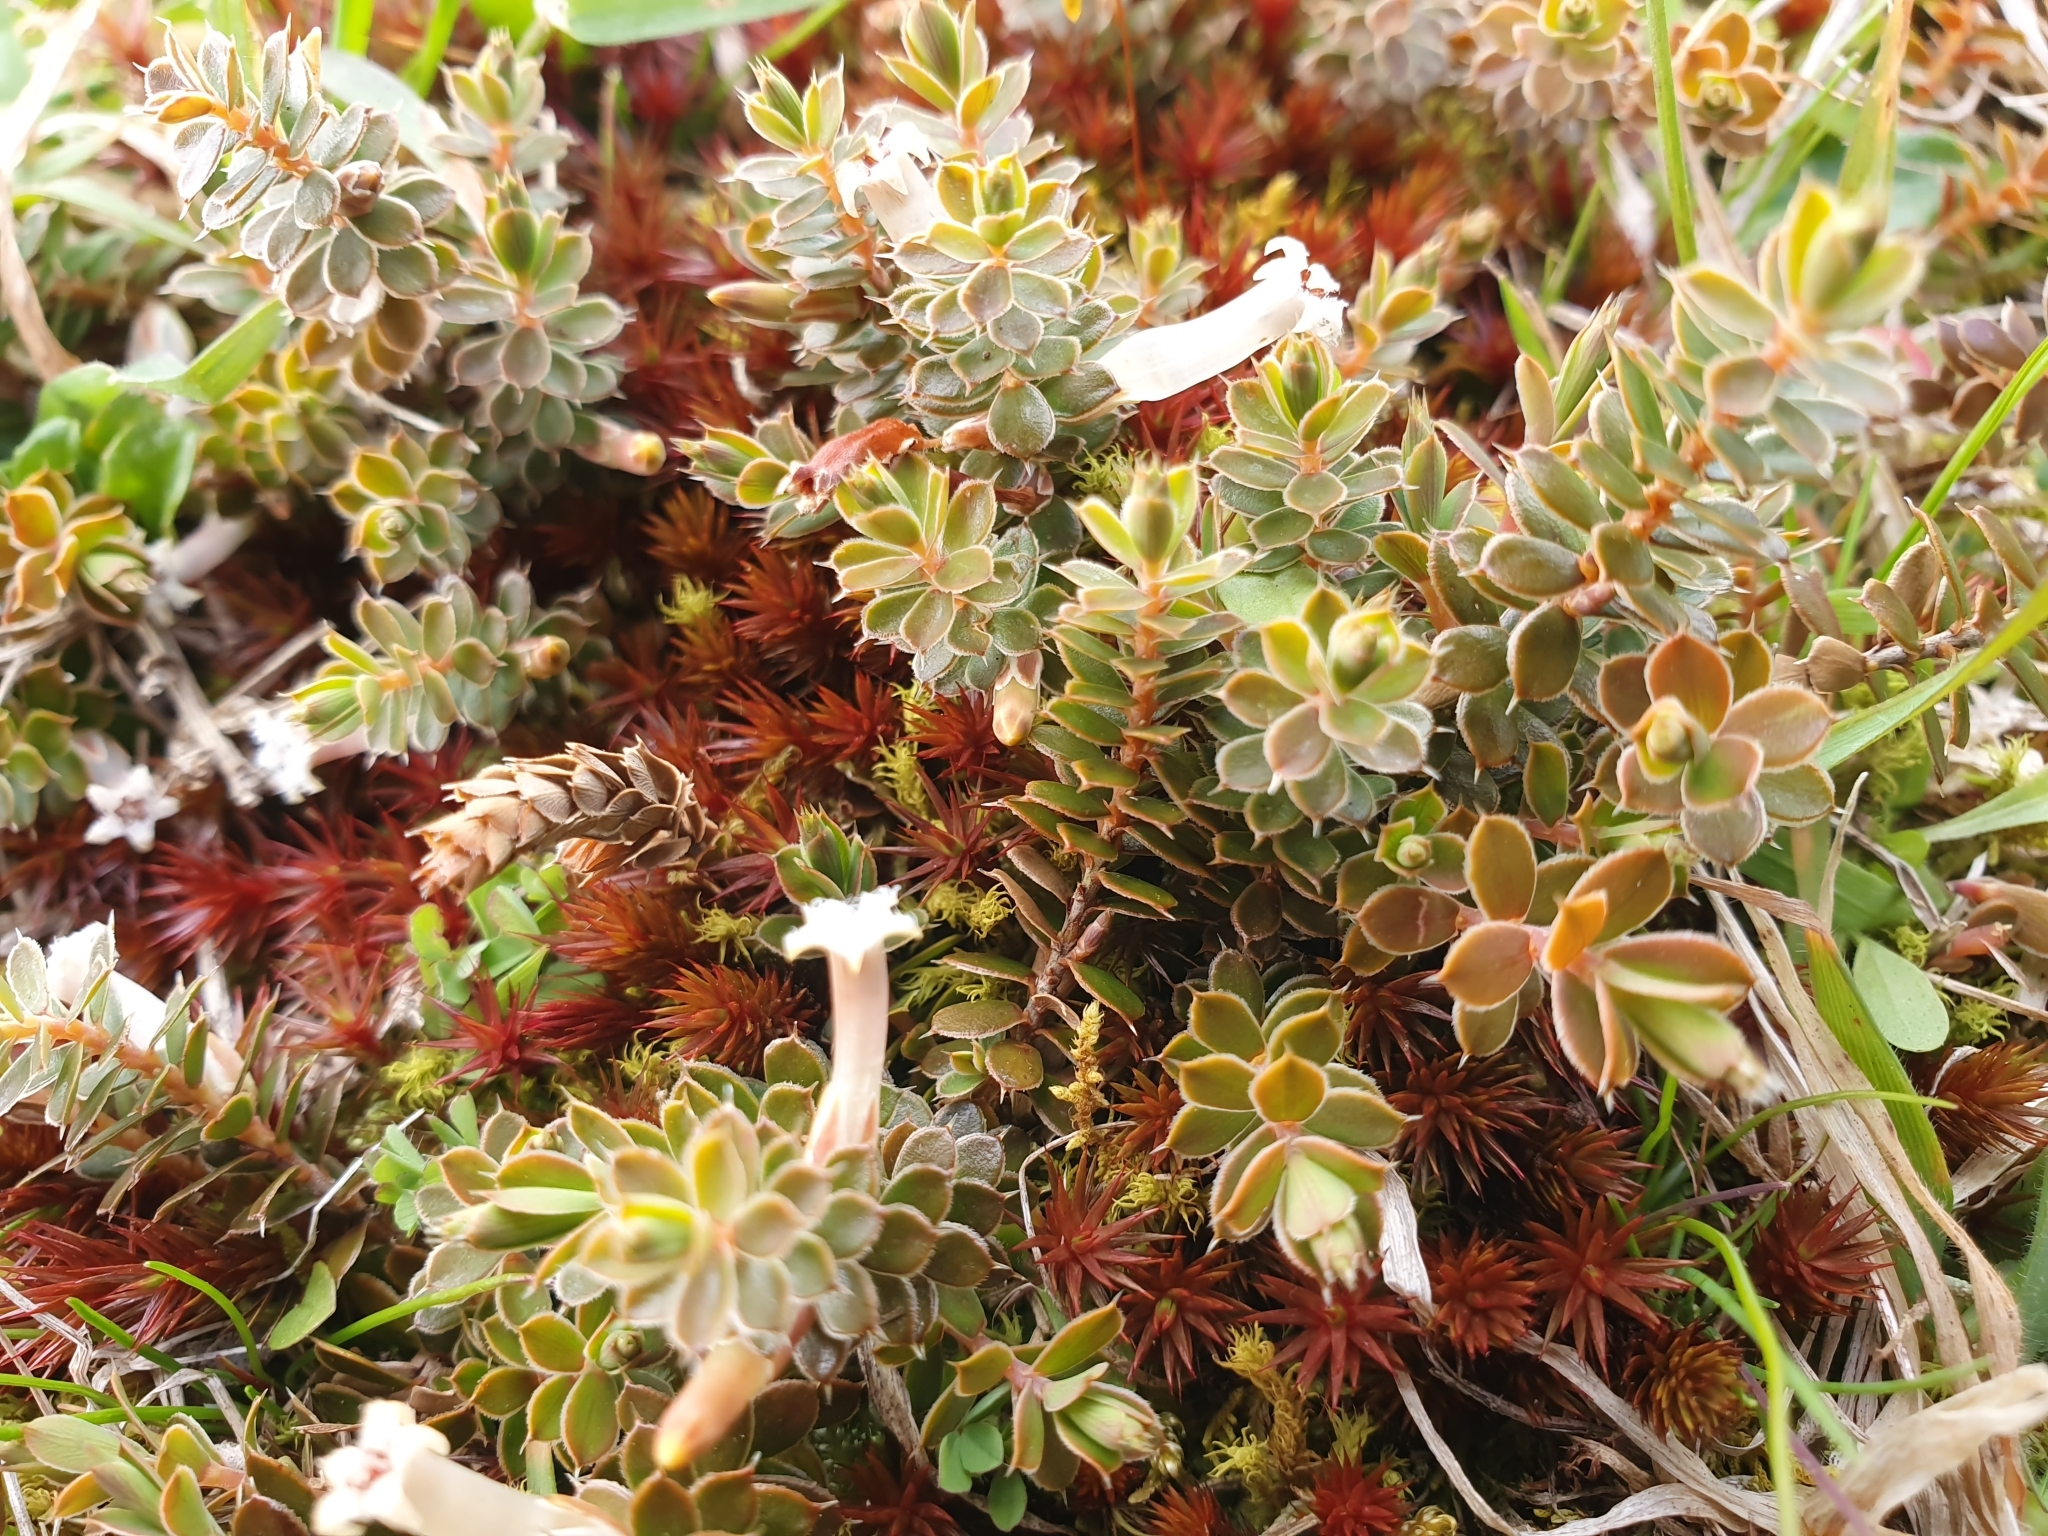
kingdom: Plantae
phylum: Tracheophyta
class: Magnoliopsida
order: Ericales
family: Ericaceae
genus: Styphelia
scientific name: Styphelia nesophila
